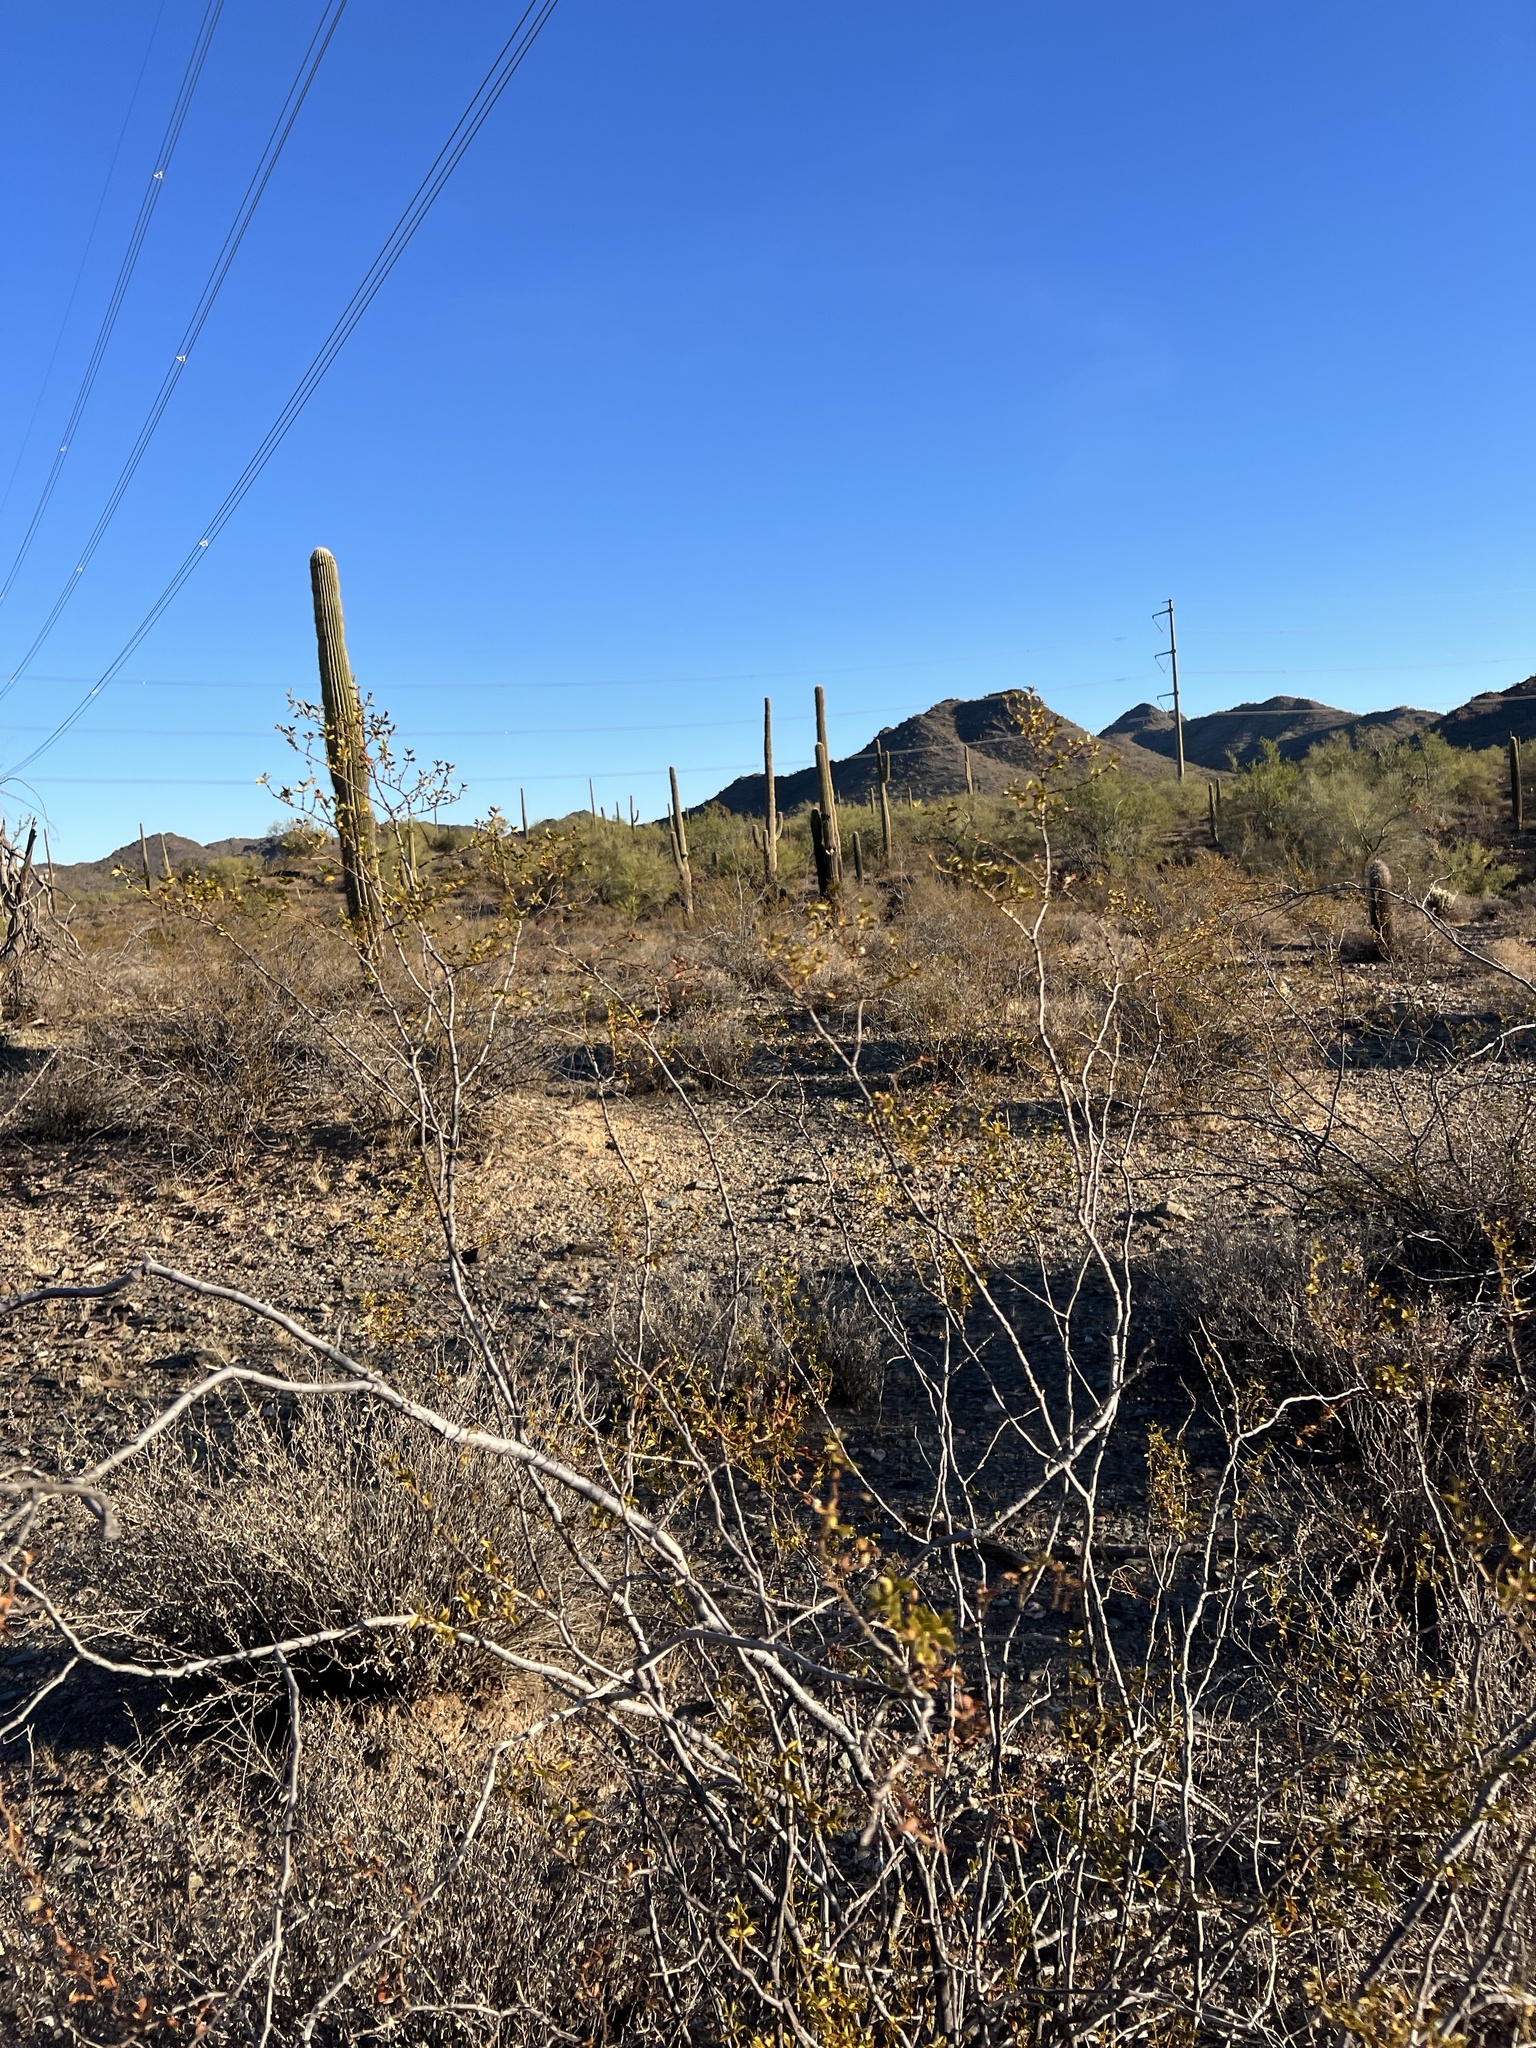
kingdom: Plantae
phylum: Tracheophyta
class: Magnoliopsida
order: Zygophyllales
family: Zygophyllaceae
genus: Larrea
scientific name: Larrea tridentata
